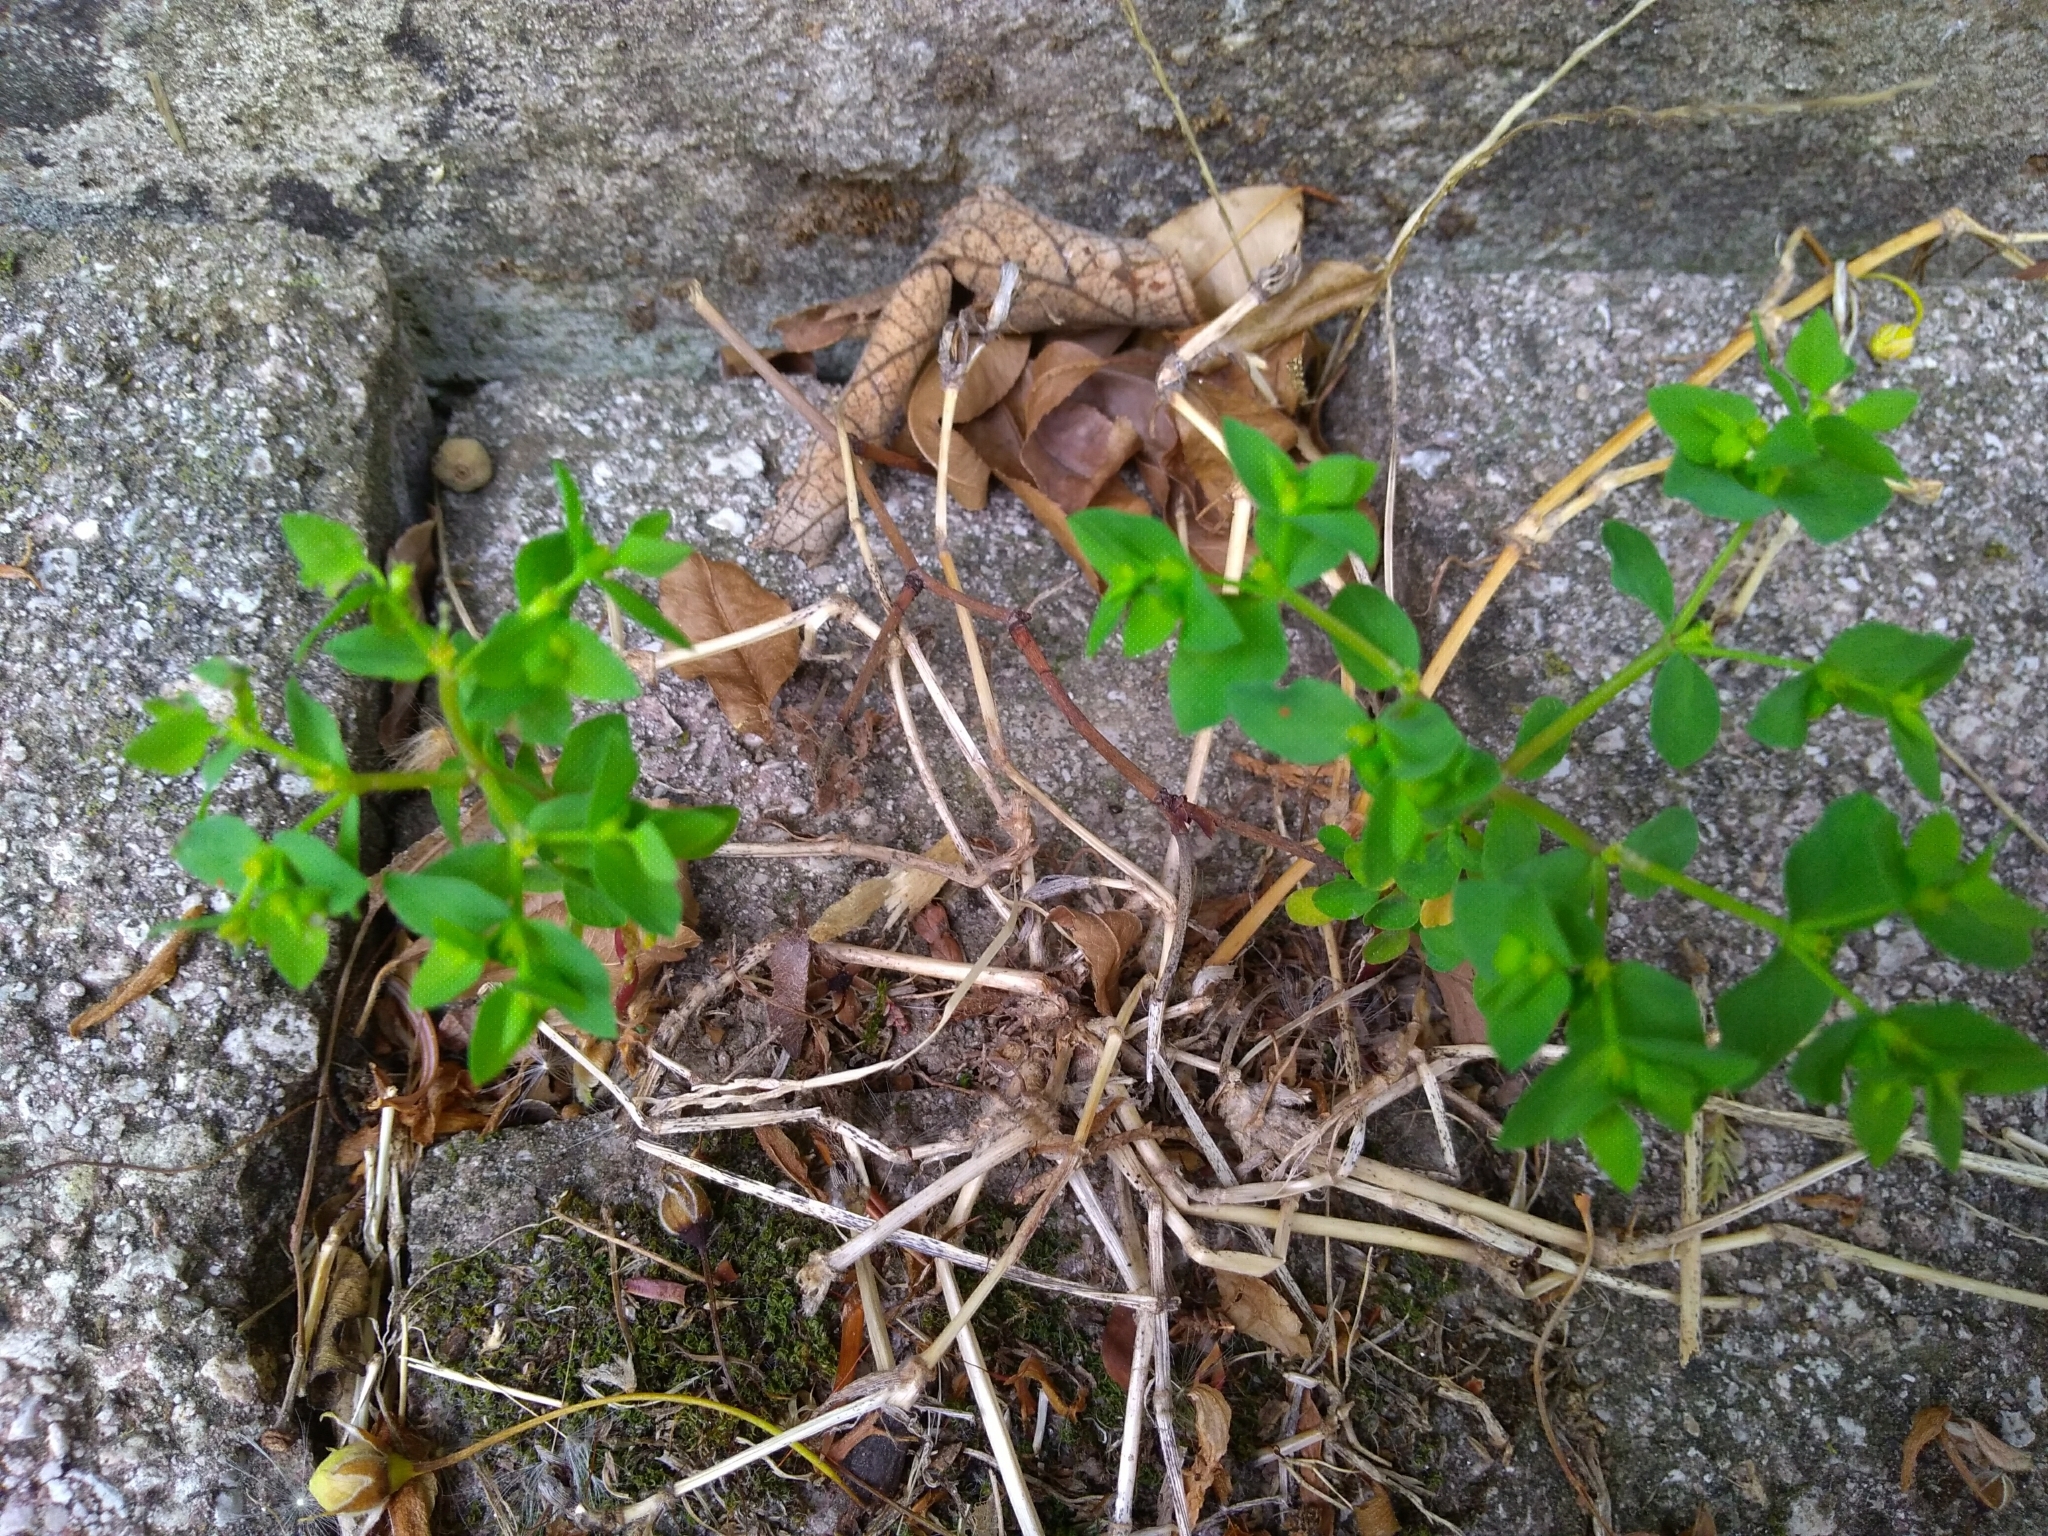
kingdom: Plantae
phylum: Tracheophyta
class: Magnoliopsida
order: Malpighiales
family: Euphorbiaceae
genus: Euphorbia
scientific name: Euphorbia peplus
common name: Petty spurge
